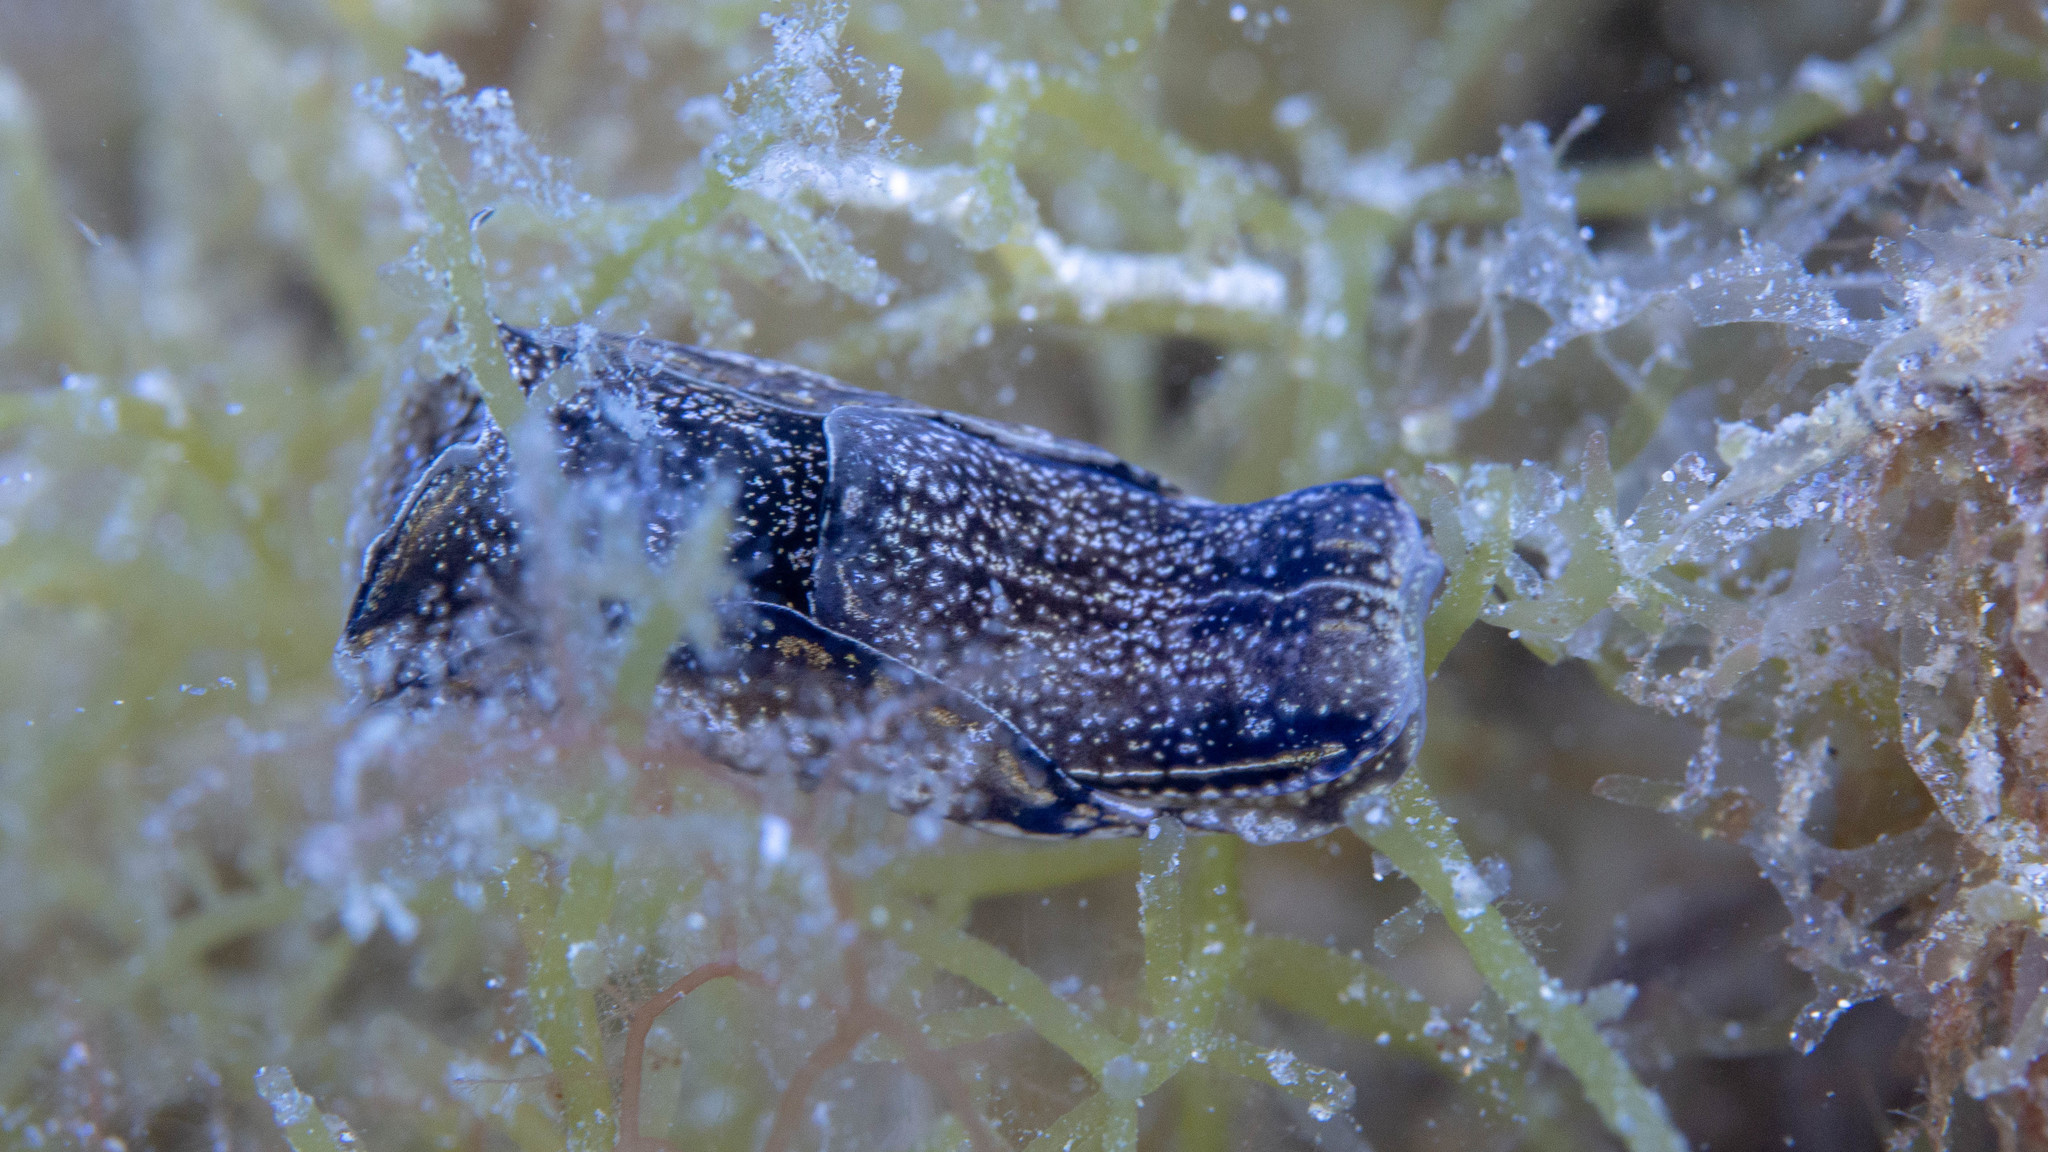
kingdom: Animalia
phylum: Mollusca
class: Gastropoda
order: Cephalaspidea
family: Aglajidae
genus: Philinopsis
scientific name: Philinopsis taronga
